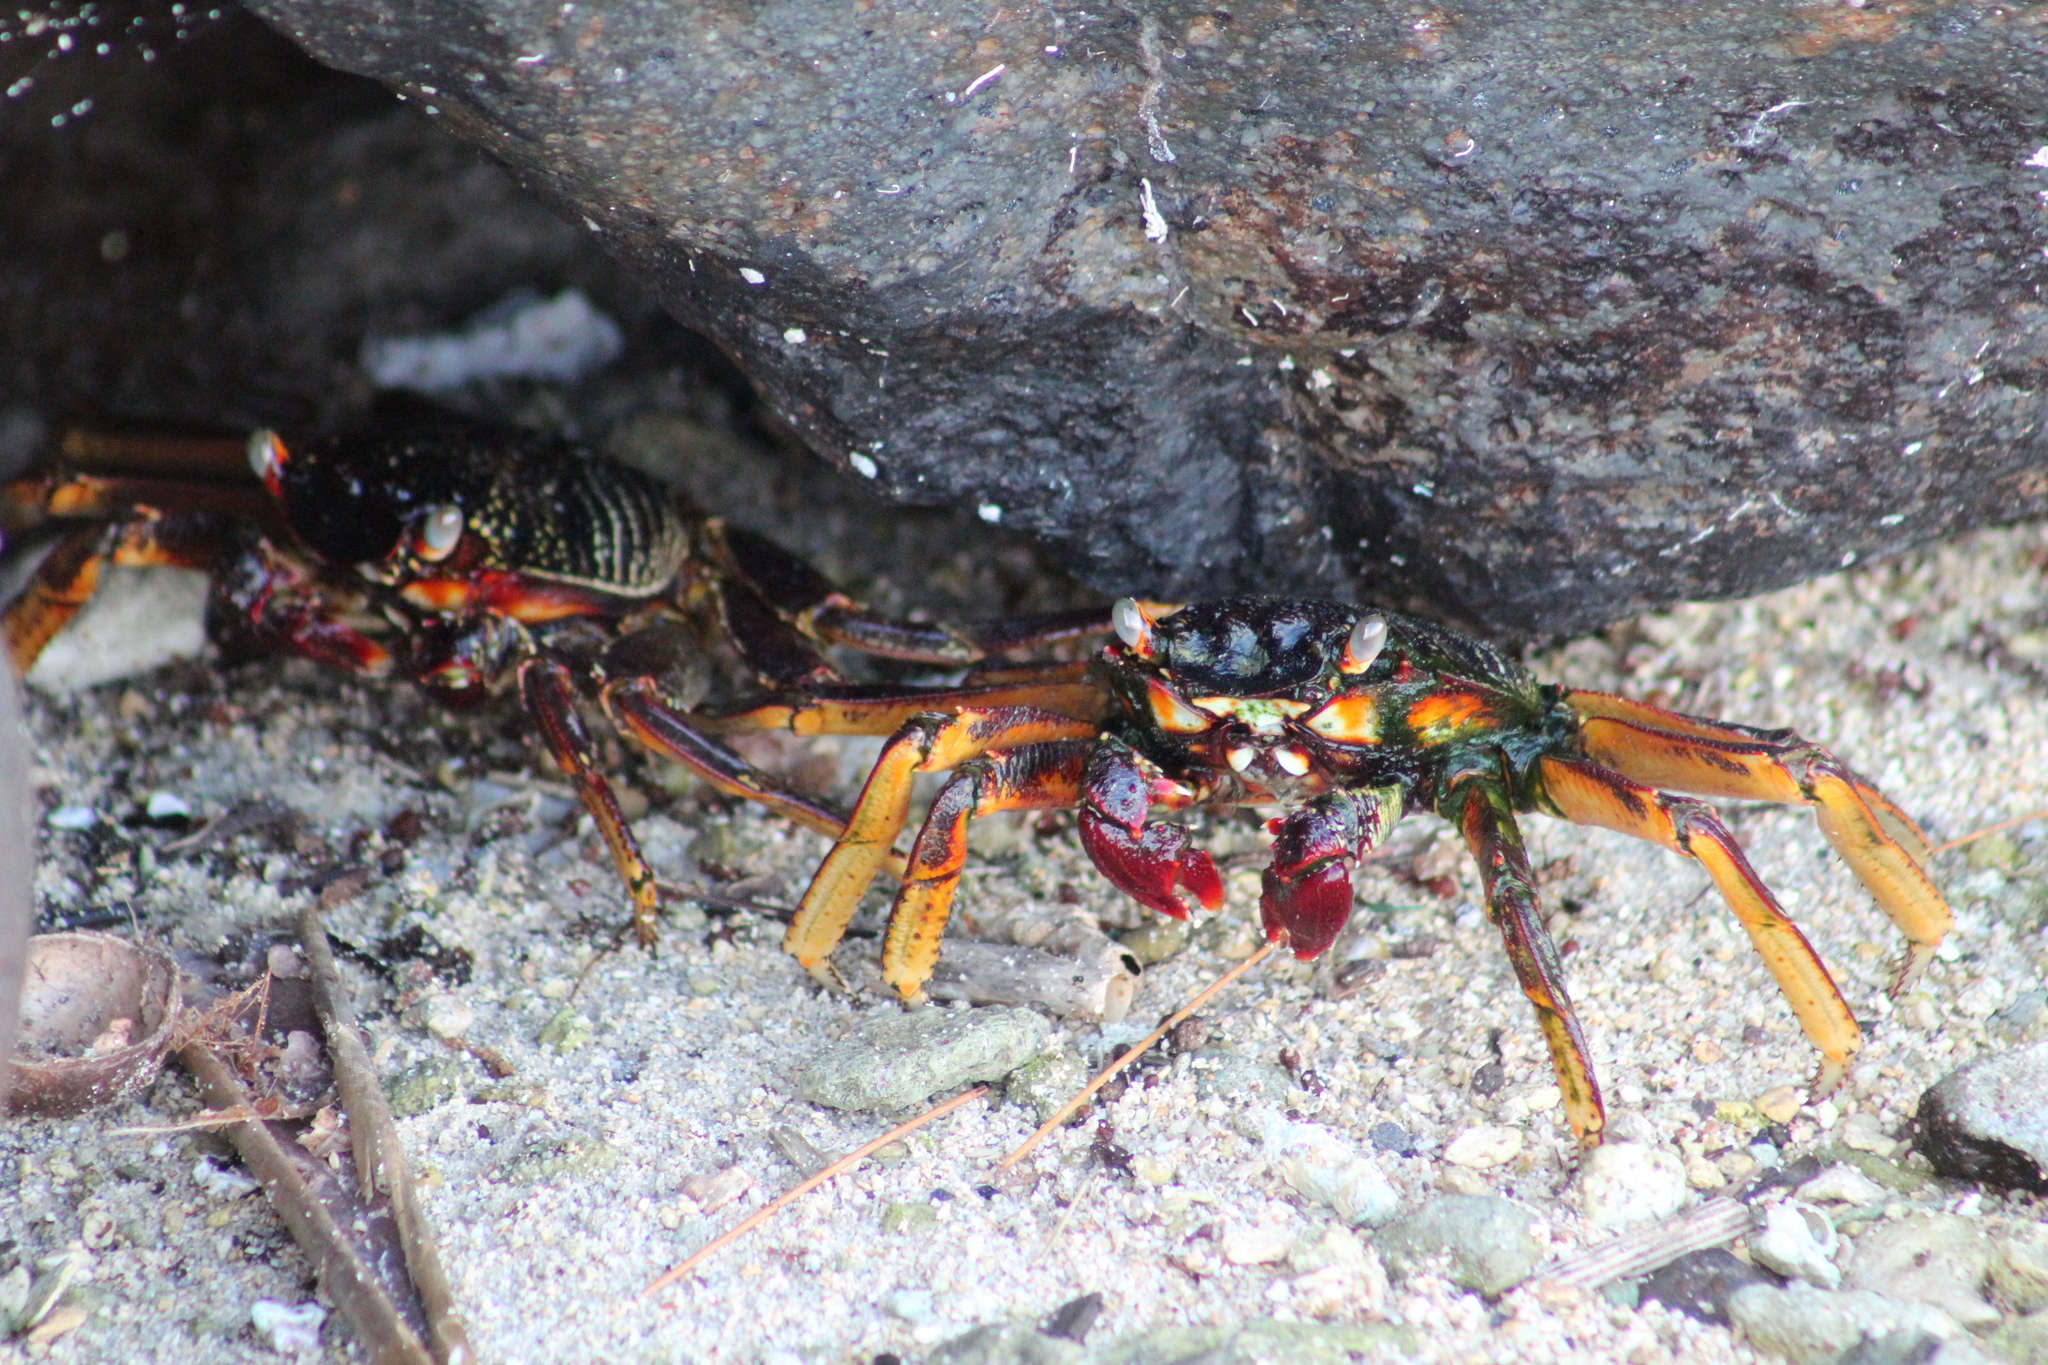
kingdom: Animalia
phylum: Arthropoda
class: Malacostraca
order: Decapoda
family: Grapsidae
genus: Grapsus
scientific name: Grapsus tenuicrustatus
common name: Natal lightfoot crab
